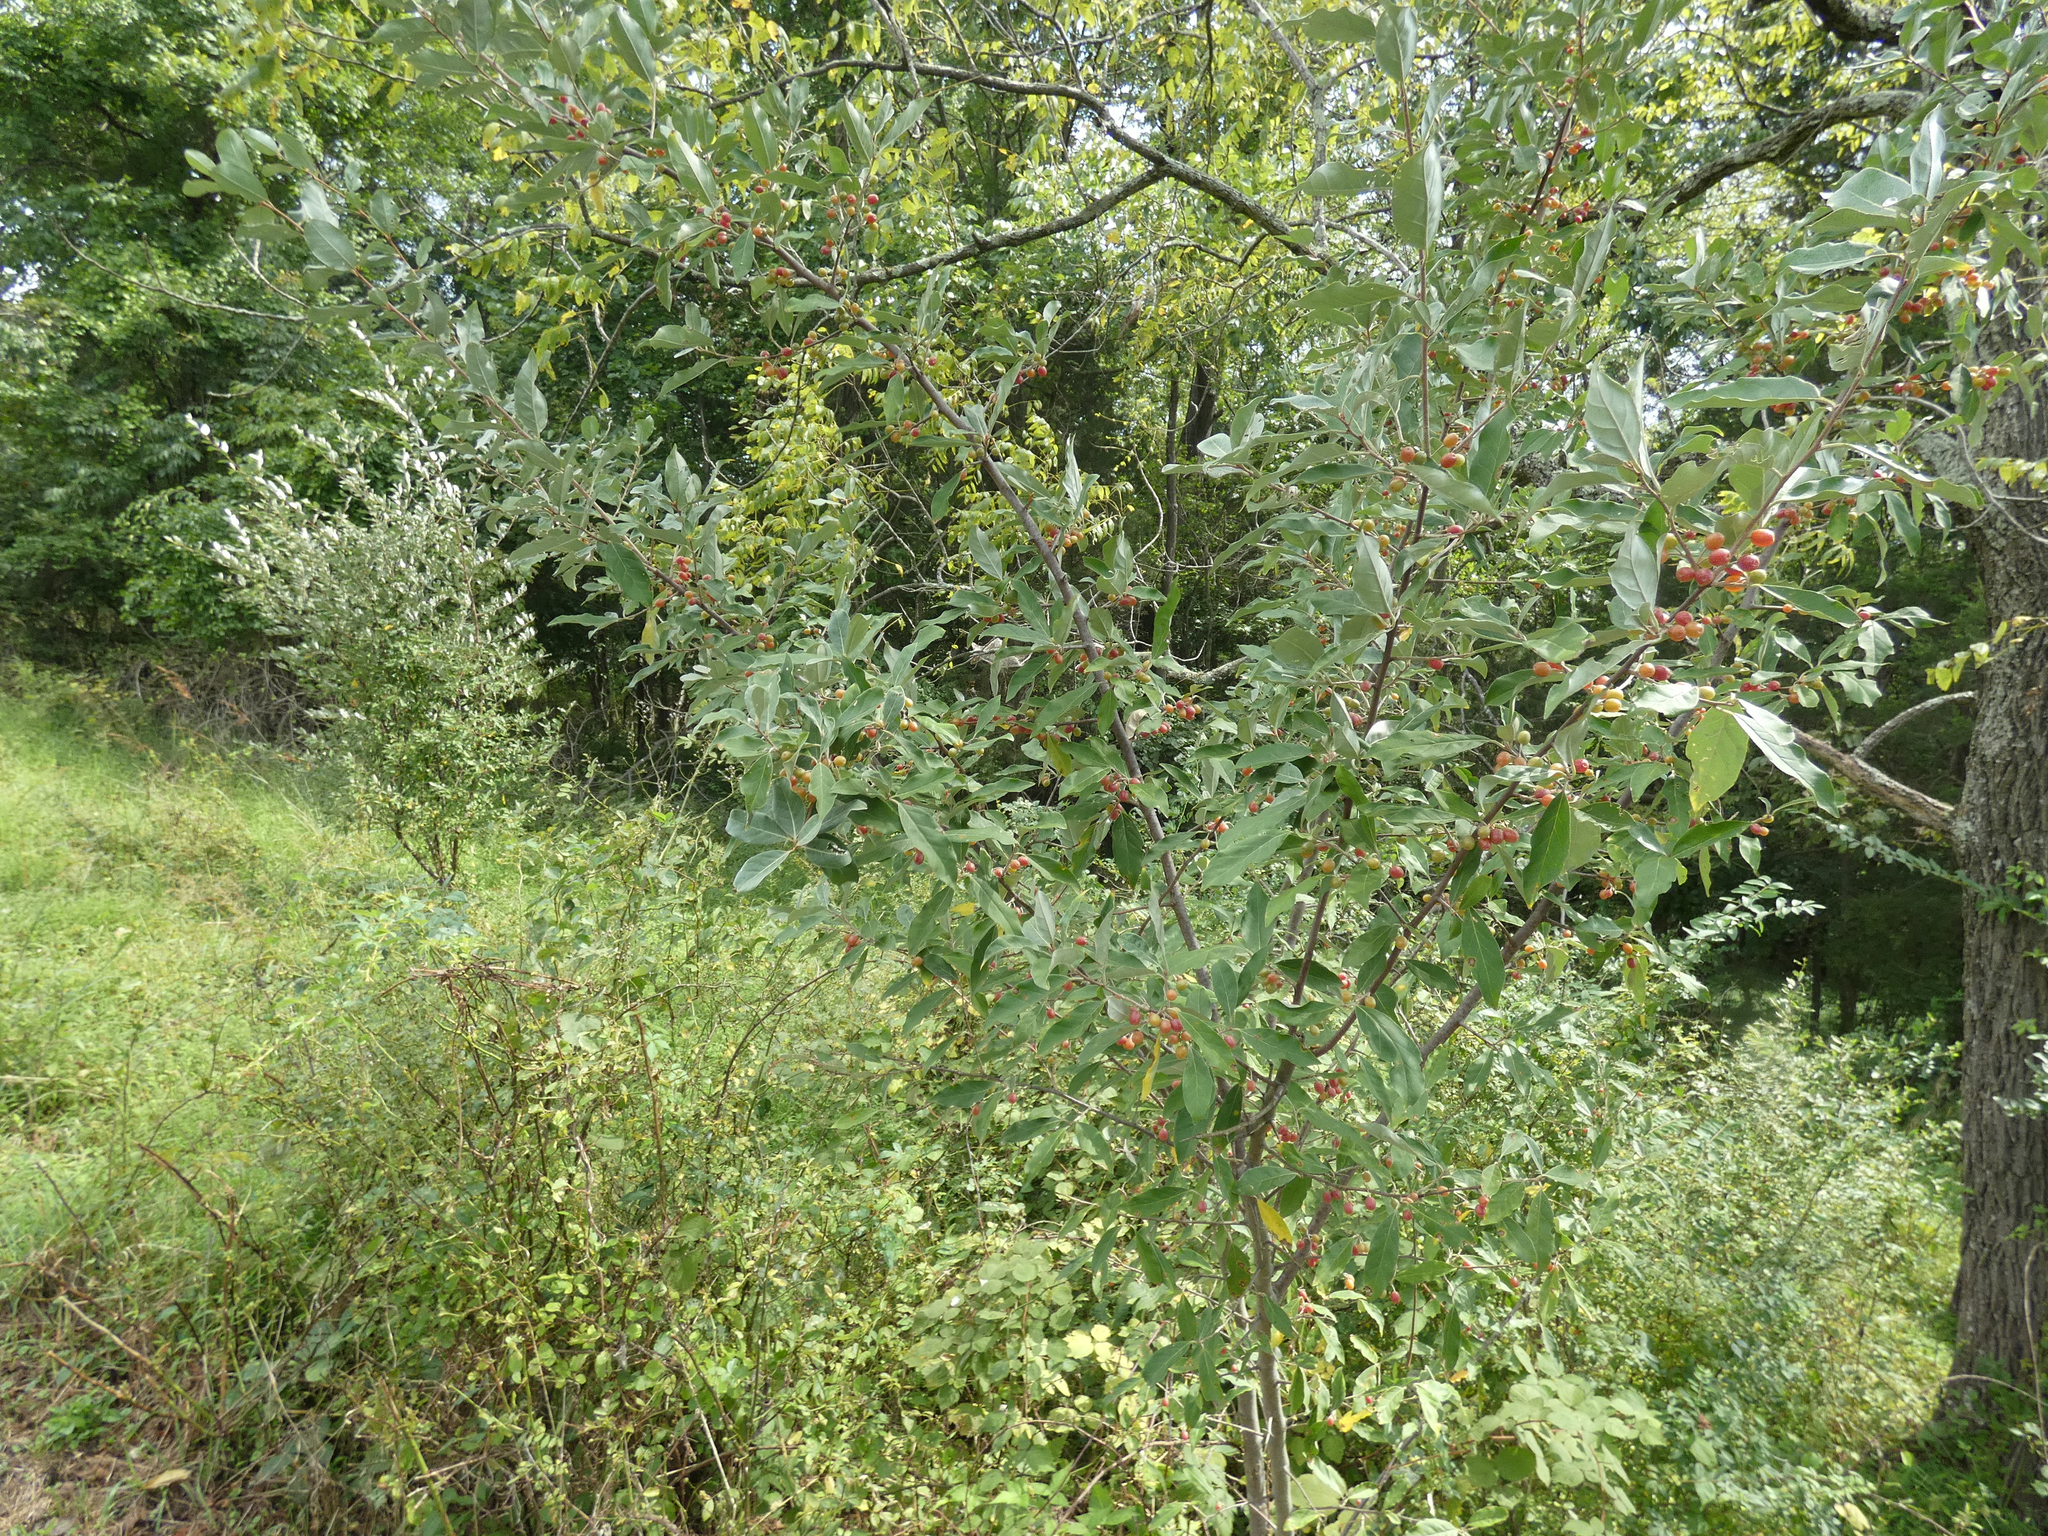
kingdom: Plantae
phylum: Tracheophyta
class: Magnoliopsida
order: Rosales
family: Elaeagnaceae
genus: Elaeagnus
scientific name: Elaeagnus umbellata
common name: Autumn olive
